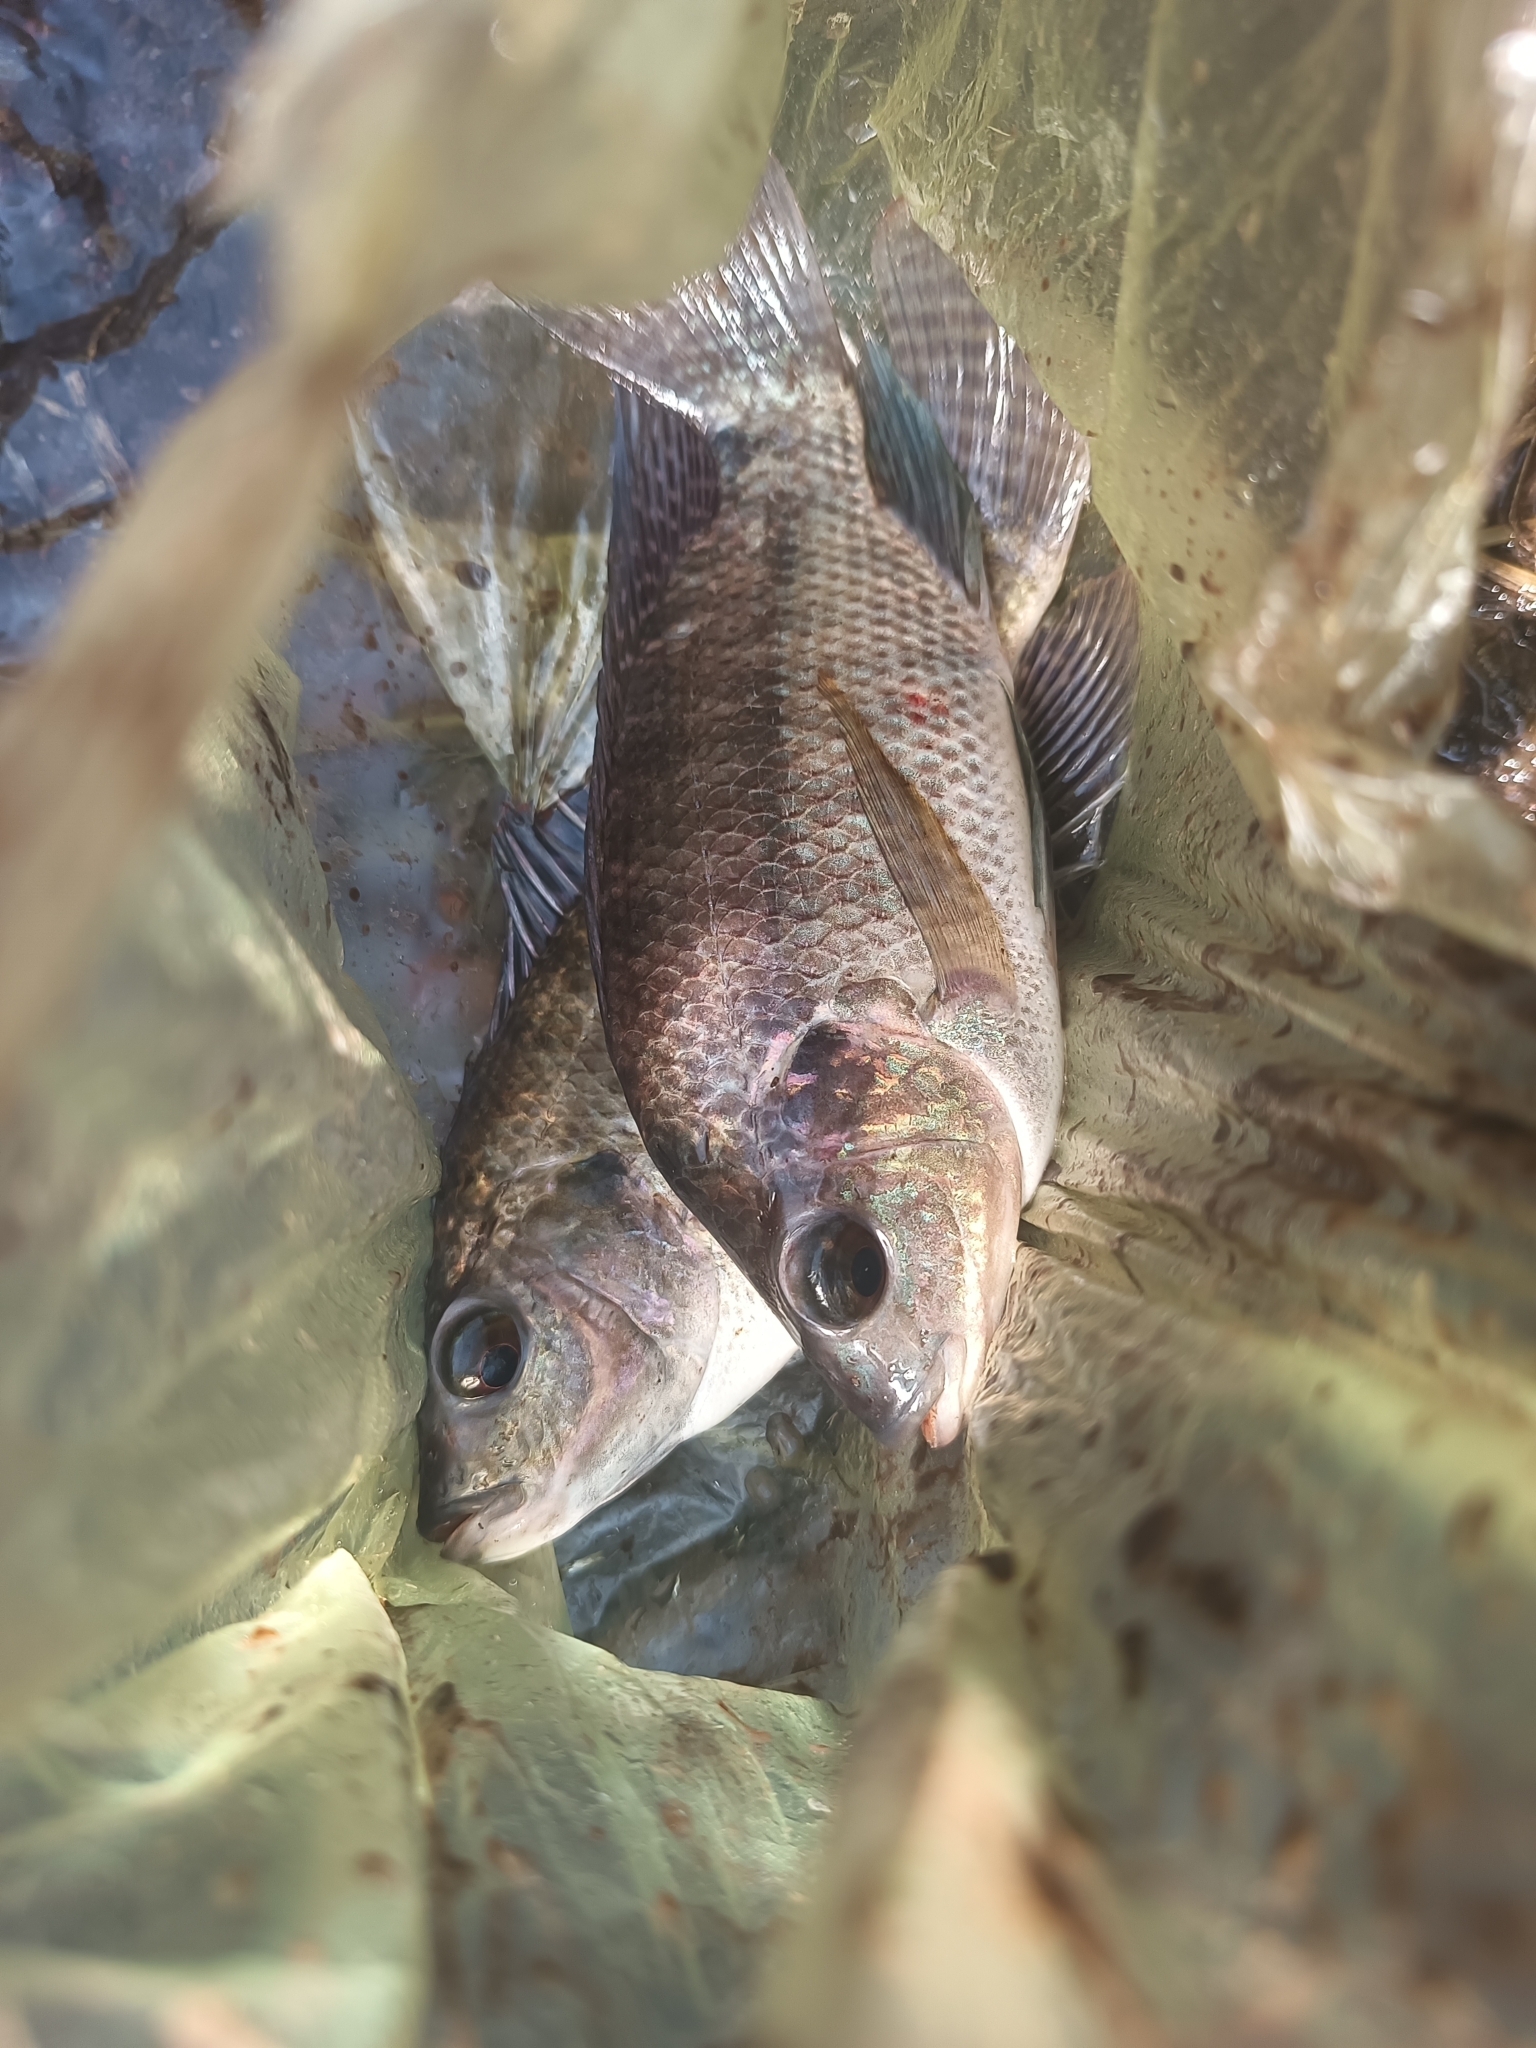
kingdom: Animalia
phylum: Chordata
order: Perciformes
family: Cichlidae
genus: Oreochromis
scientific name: Oreochromis niloticus
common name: Nile tilapia
